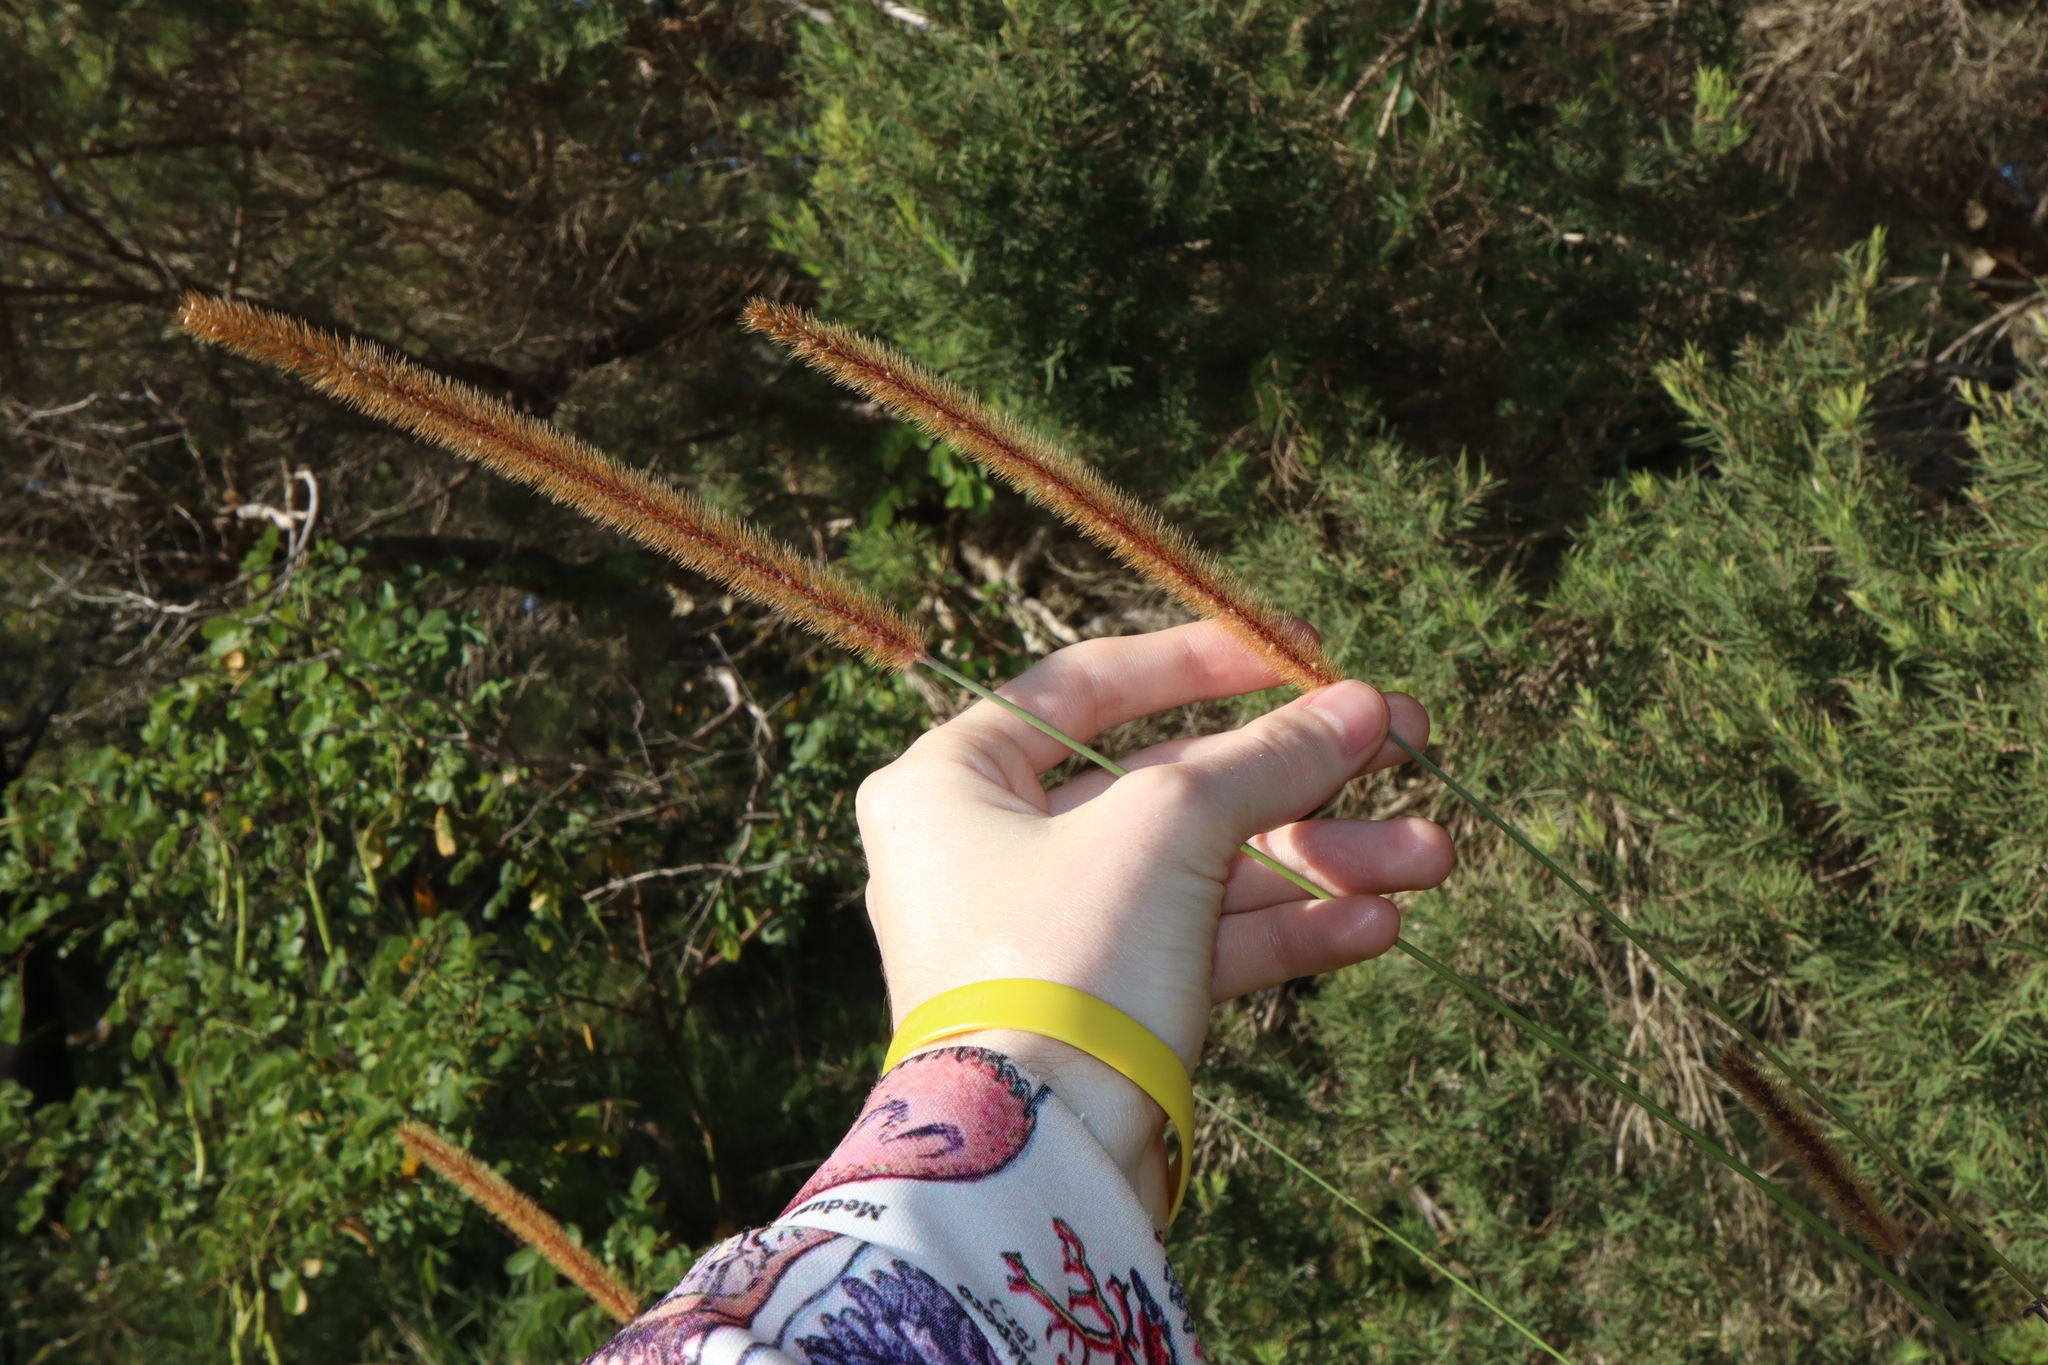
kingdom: Plantae
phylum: Tracheophyta
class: Liliopsida
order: Poales
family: Poaceae
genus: Setaria
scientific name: Setaria sphacelata
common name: African bristlegrass
